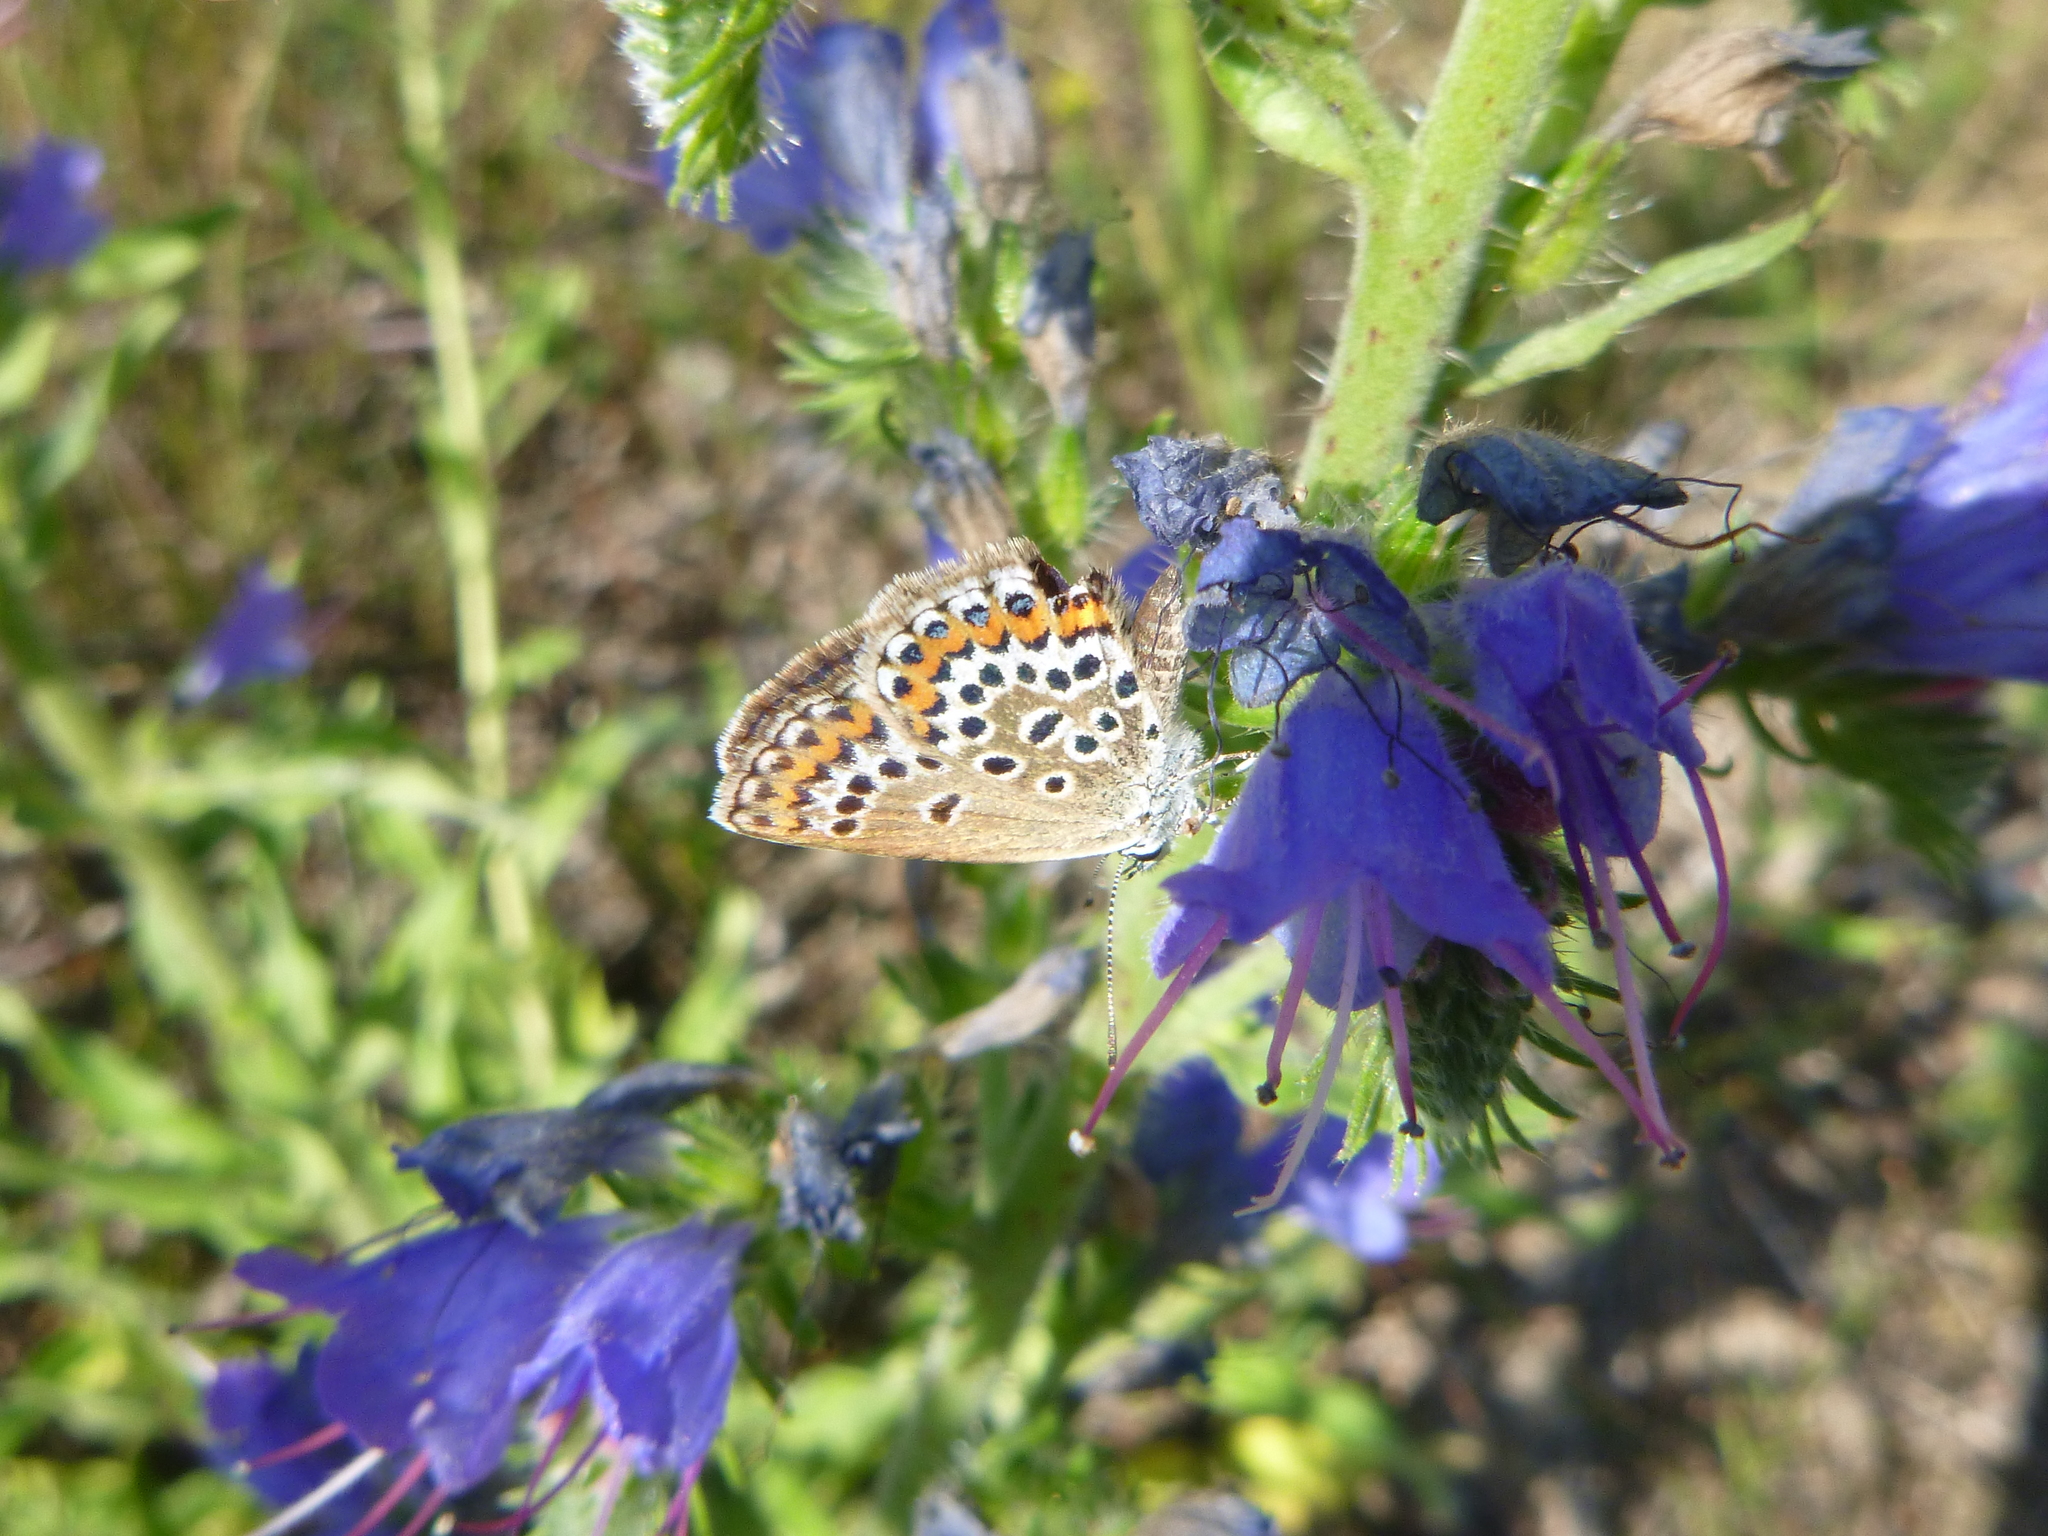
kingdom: Animalia
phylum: Arthropoda
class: Insecta
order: Lepidoptera
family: Lycaenidae
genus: Plebejus
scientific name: Plebejus argus
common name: Silver-studded blue
